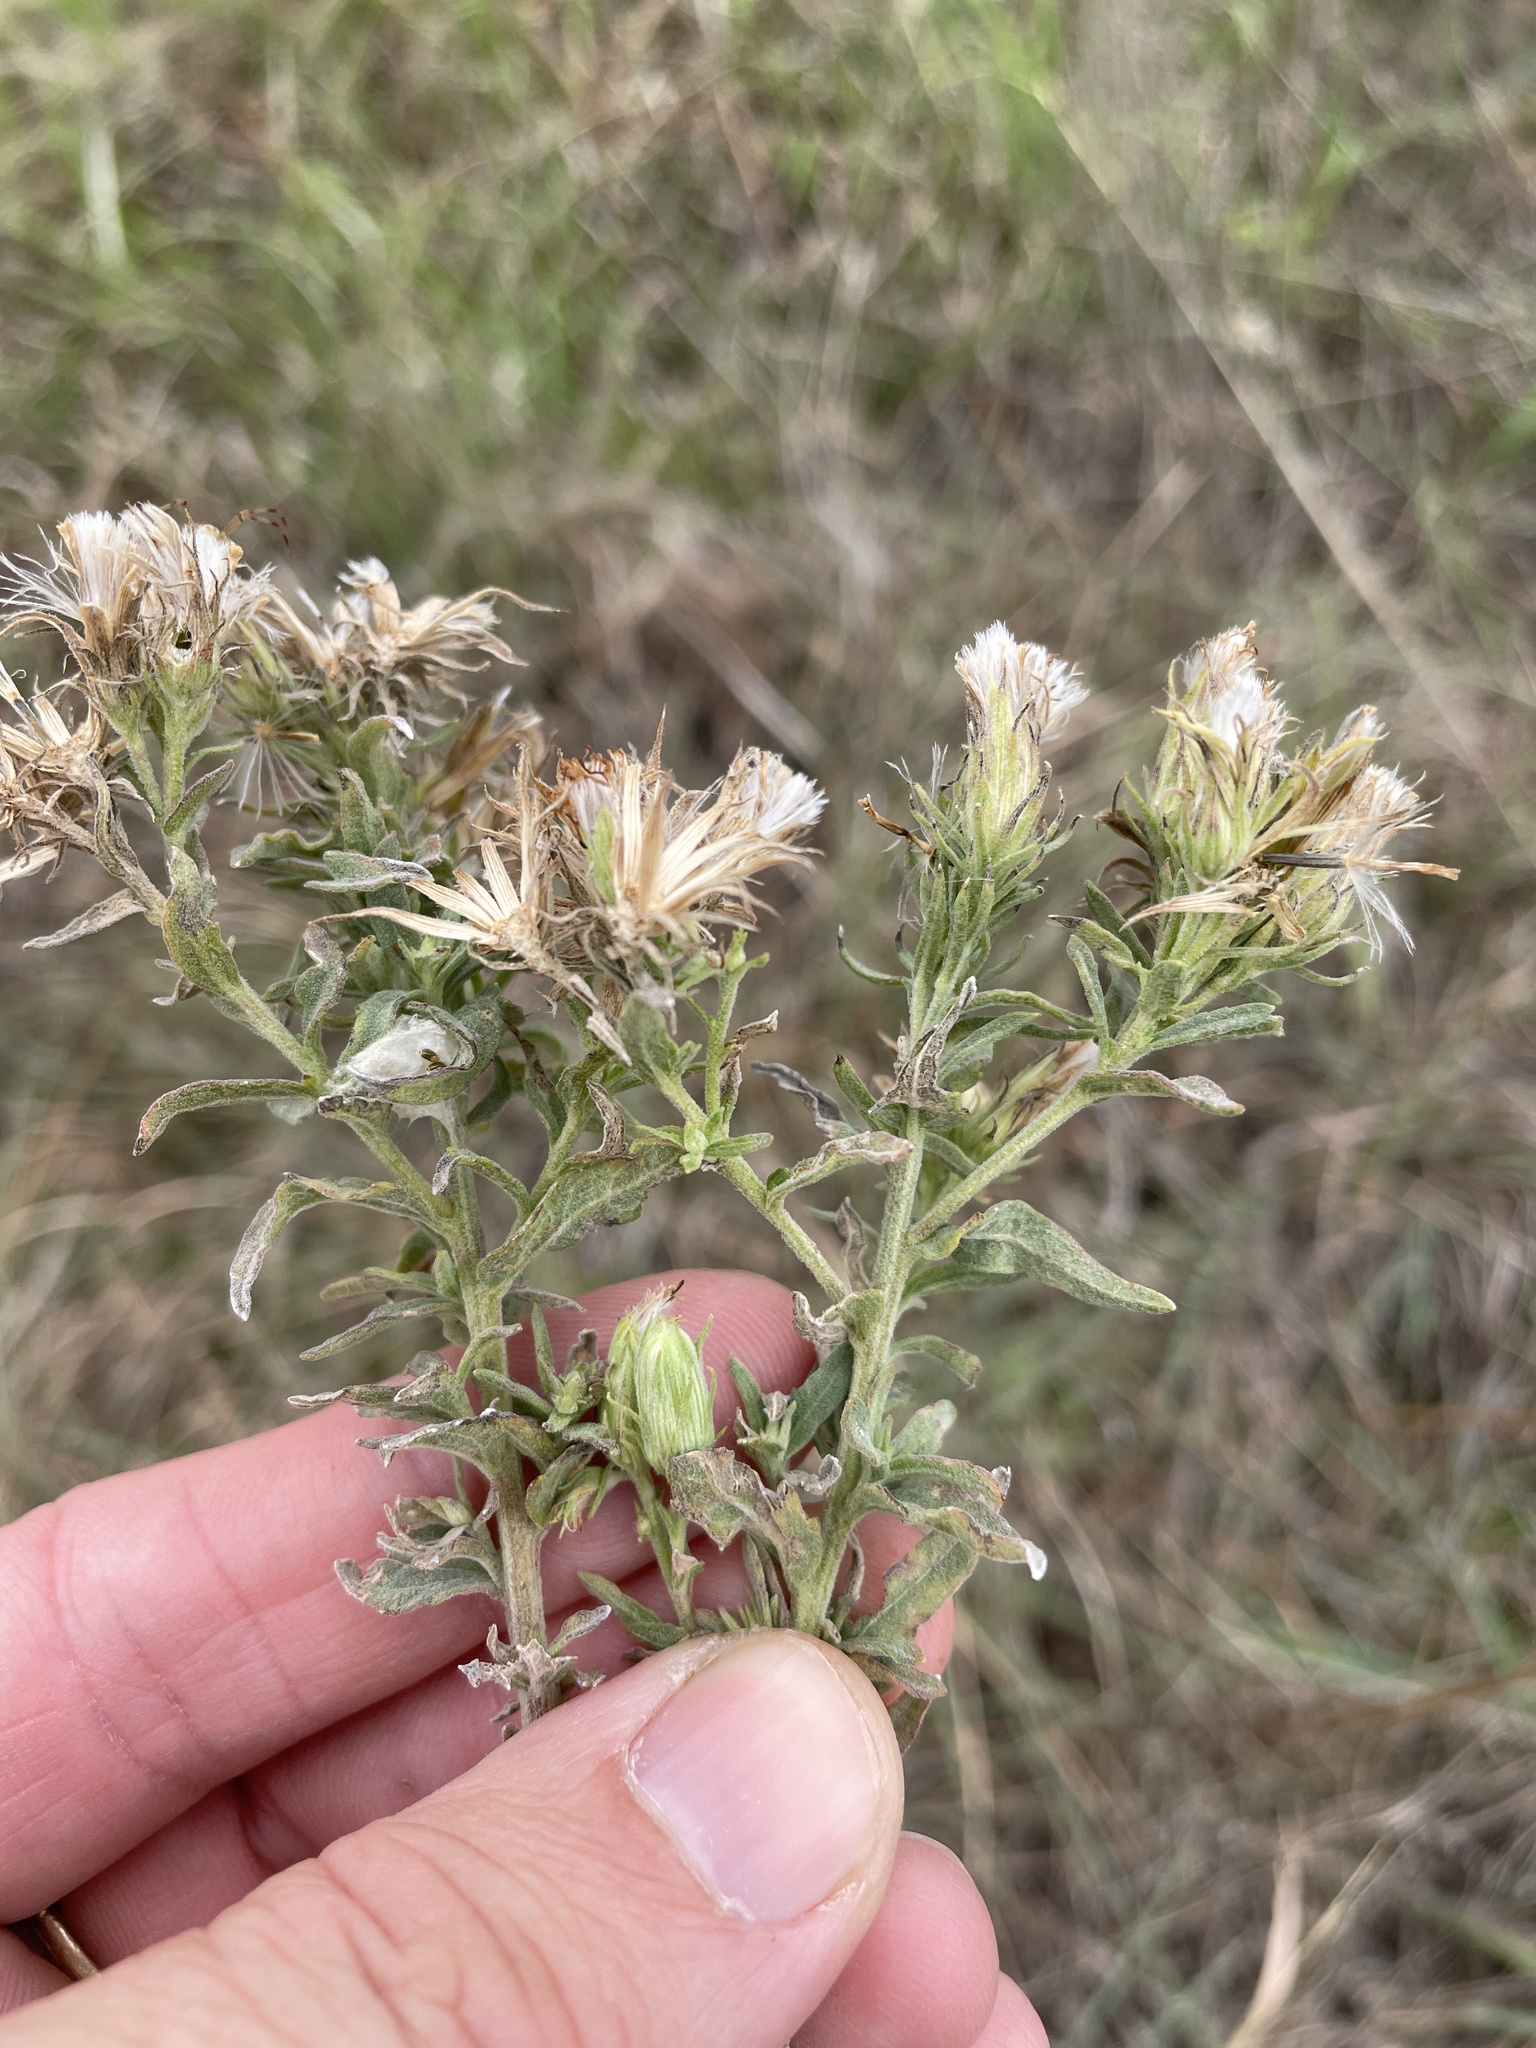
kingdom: Plantae
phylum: Tracheophyta
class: Magnoliopsida
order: Asterales
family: Asteraceae
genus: Brickellia
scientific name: Brickellia eupatorioides
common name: False boneset
